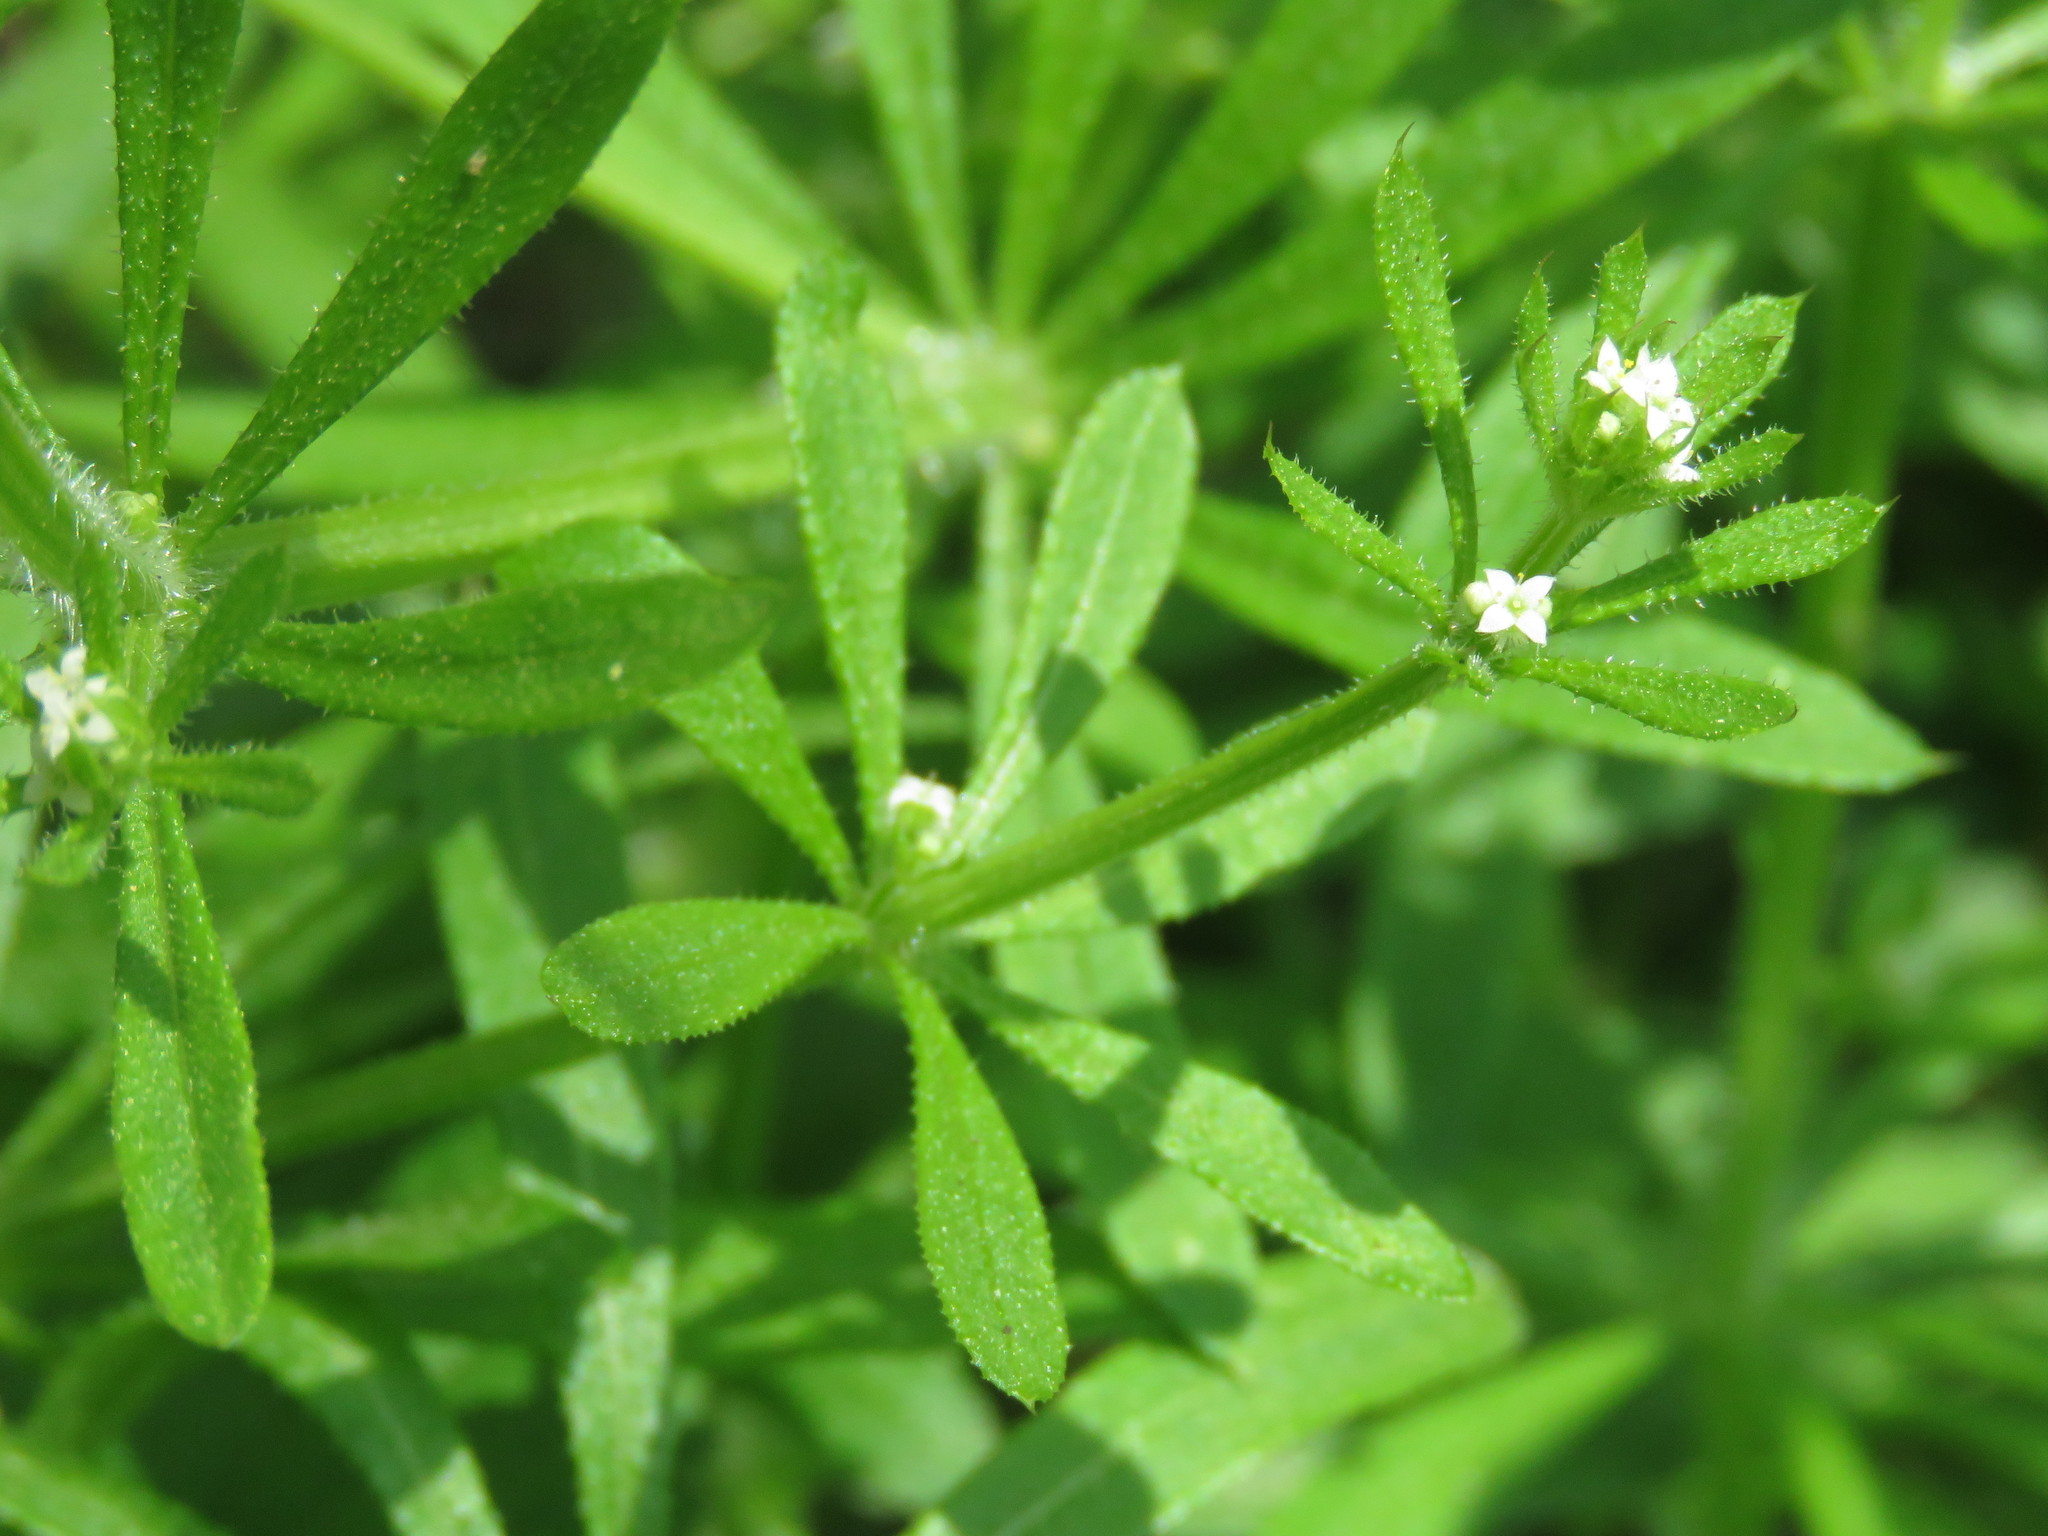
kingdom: Plantae
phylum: Tracheophyta
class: Magnoliopsida
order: Gentianales
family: Rubiaceae
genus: Galium
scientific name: Galium aparine
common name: Cleavers
